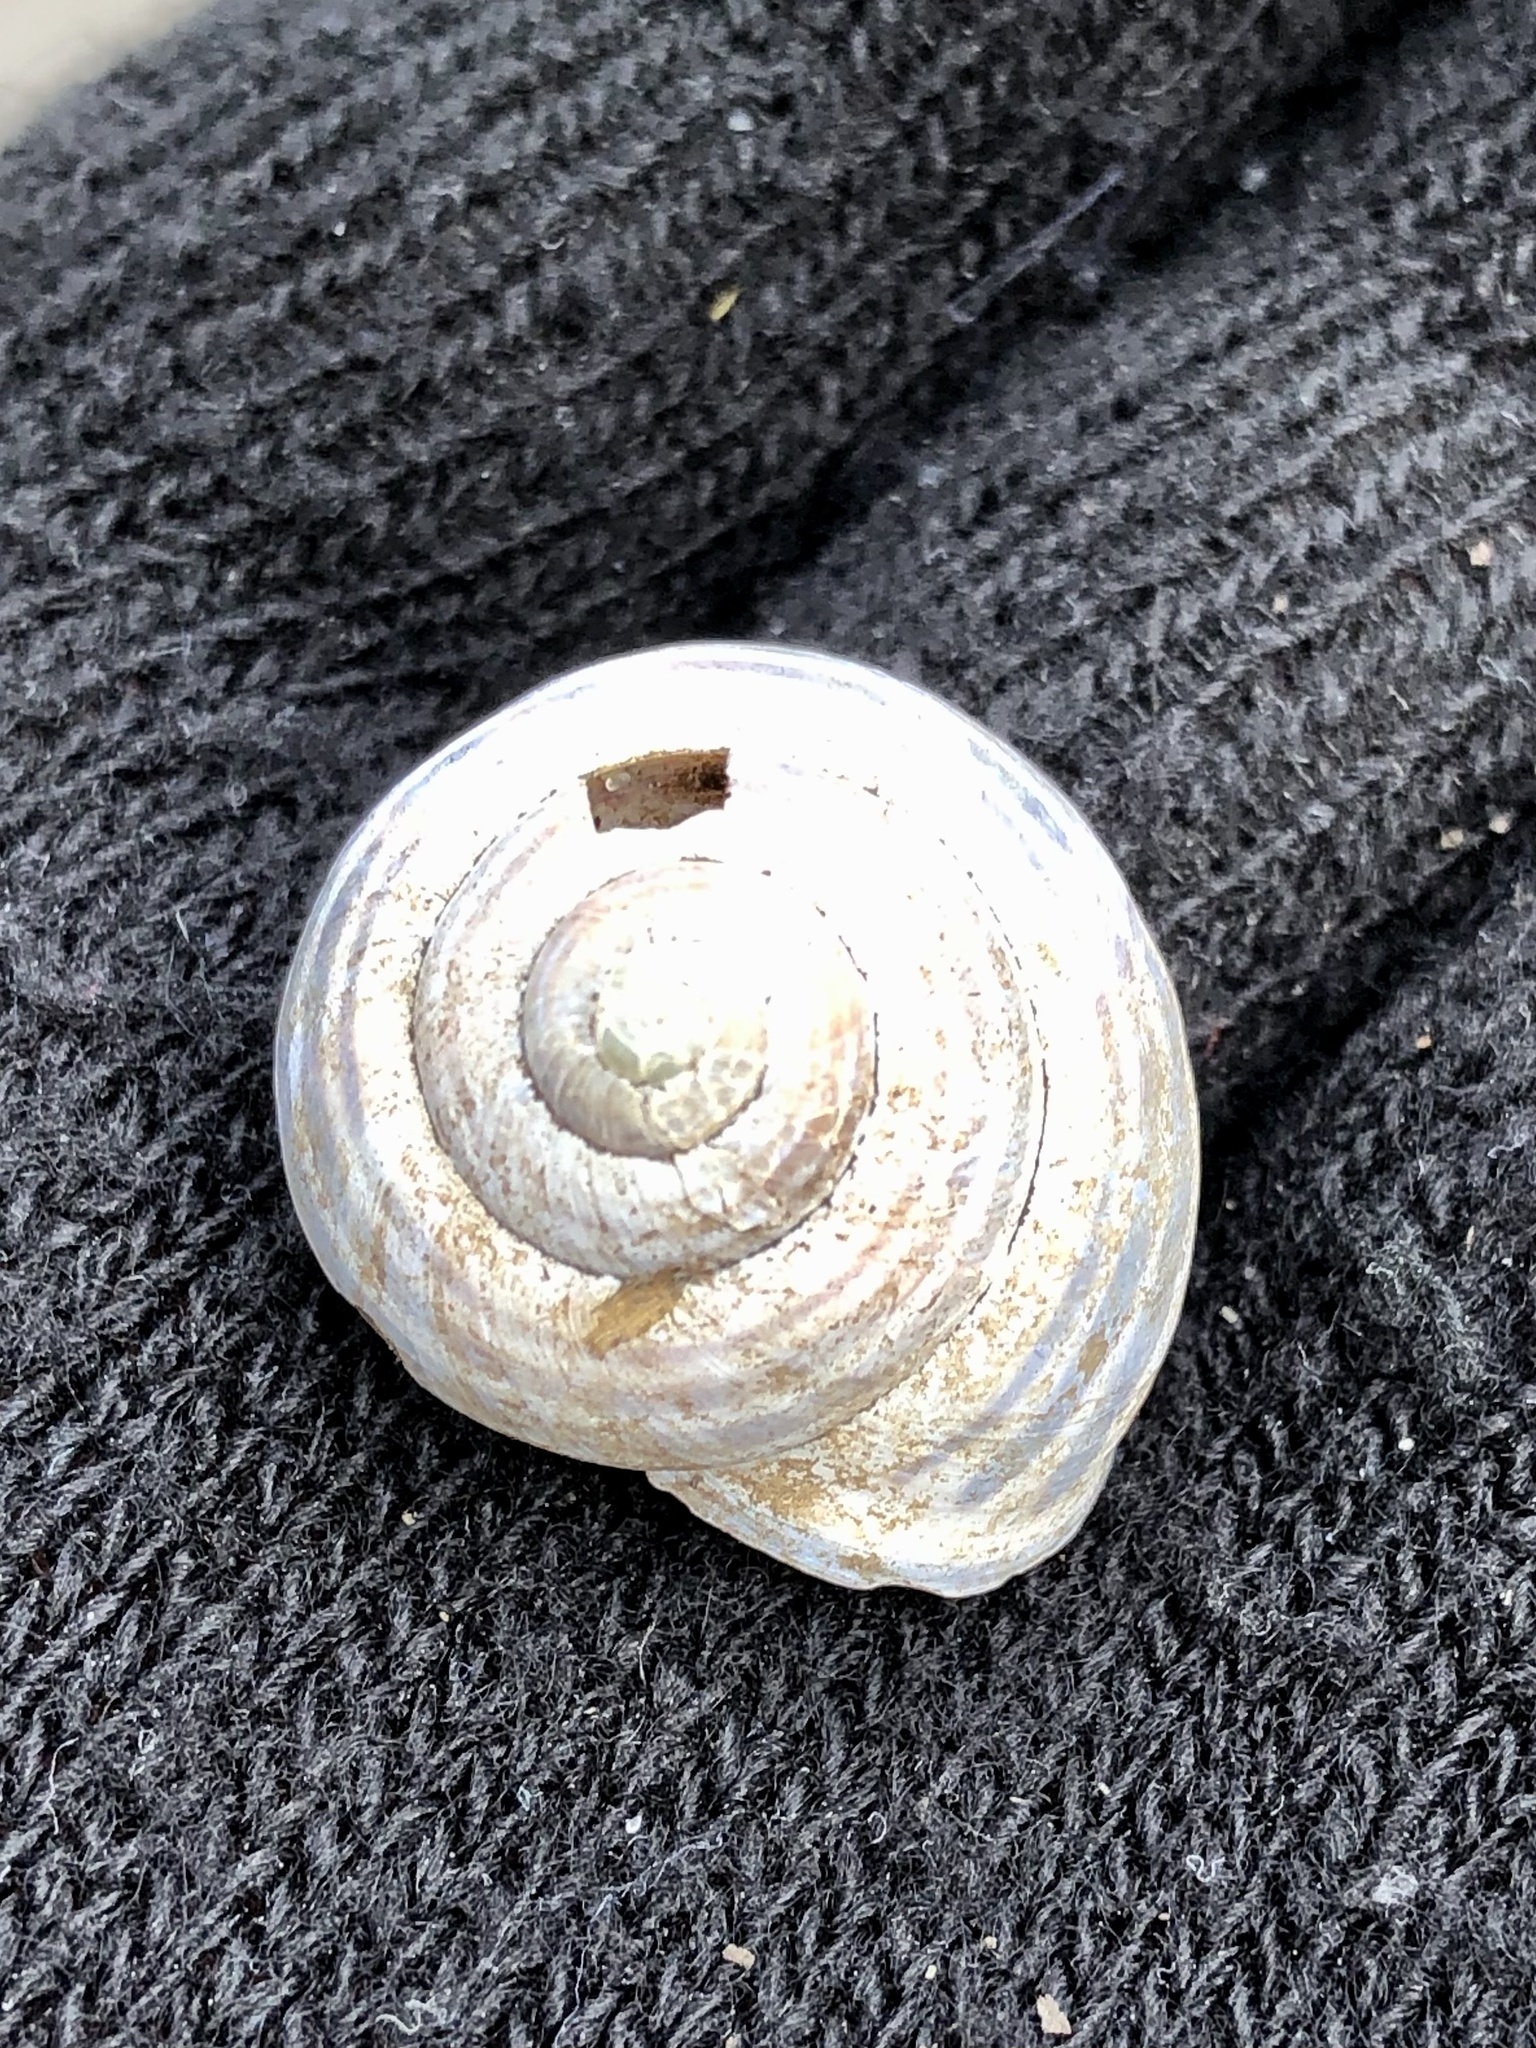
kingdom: Animalia
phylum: Mollusca
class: Gastropoda
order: Stylommatophora
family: Helicidae
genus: Cepaea
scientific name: Cepaea nemoralis
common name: Grovesnail
